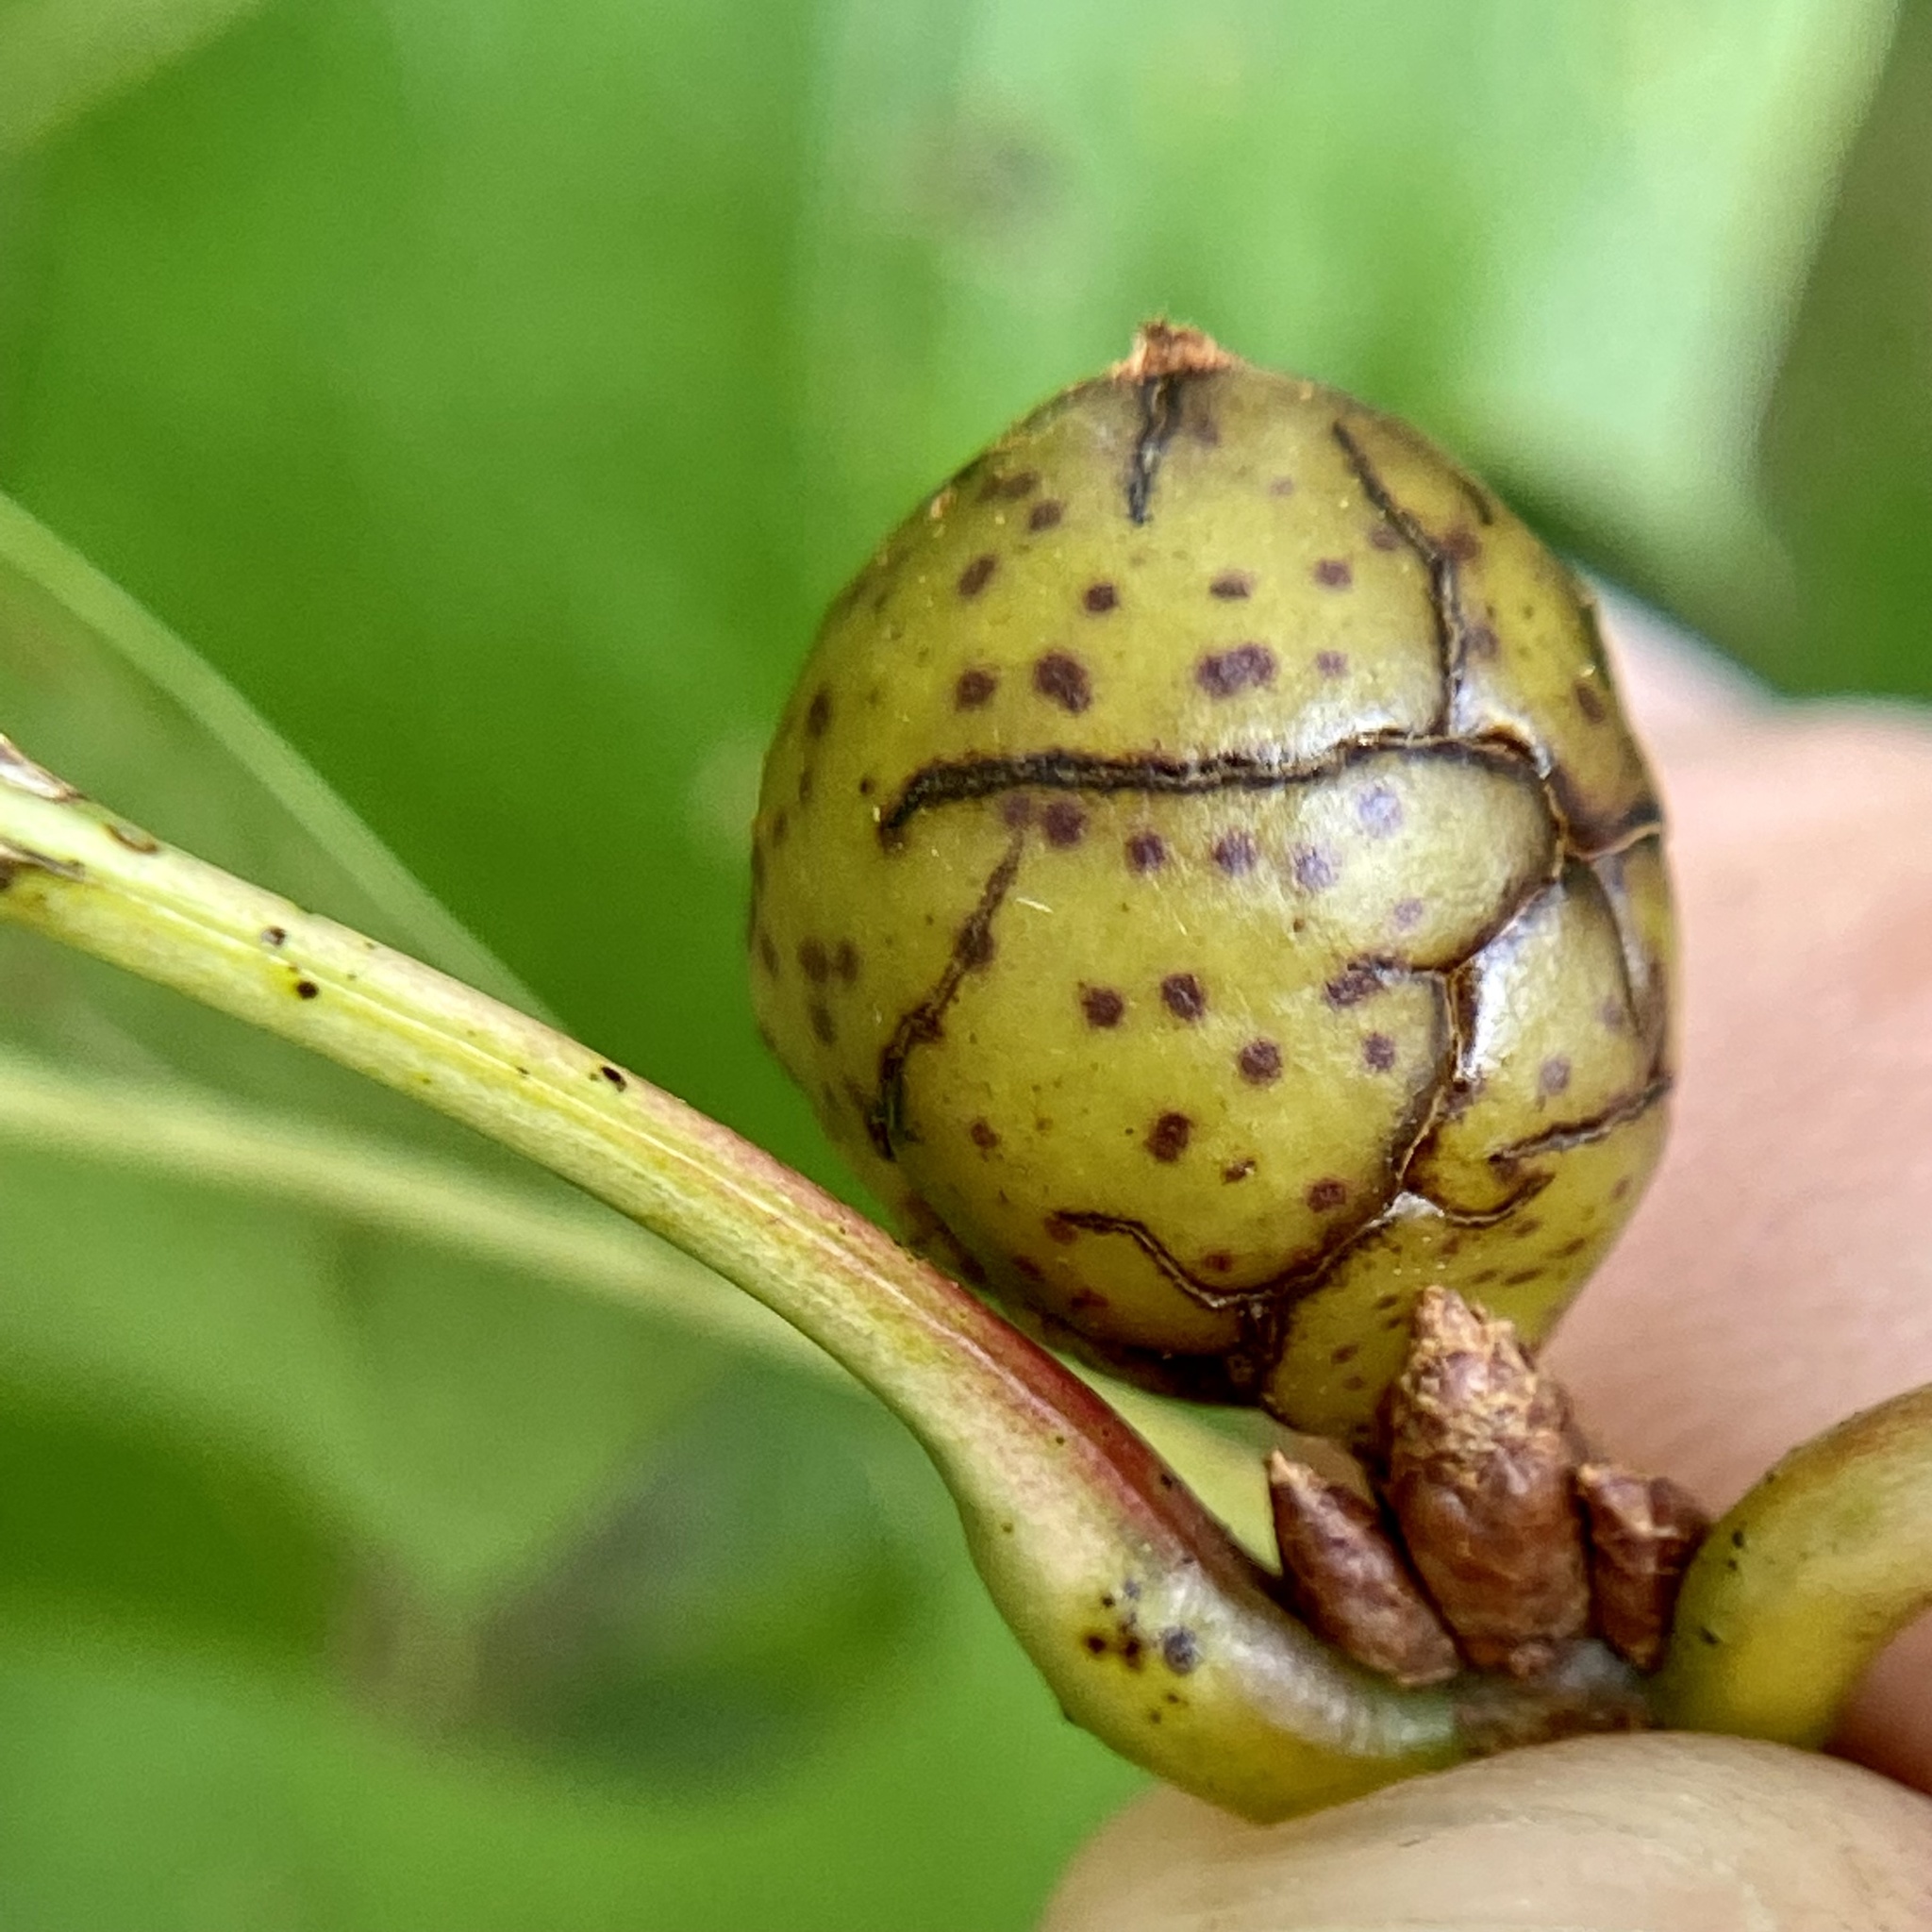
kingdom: Animalia
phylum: Arthropoda
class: Insecta
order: Hymenoptera
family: Cynipidae
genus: Amphibolips
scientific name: Amphibolips
